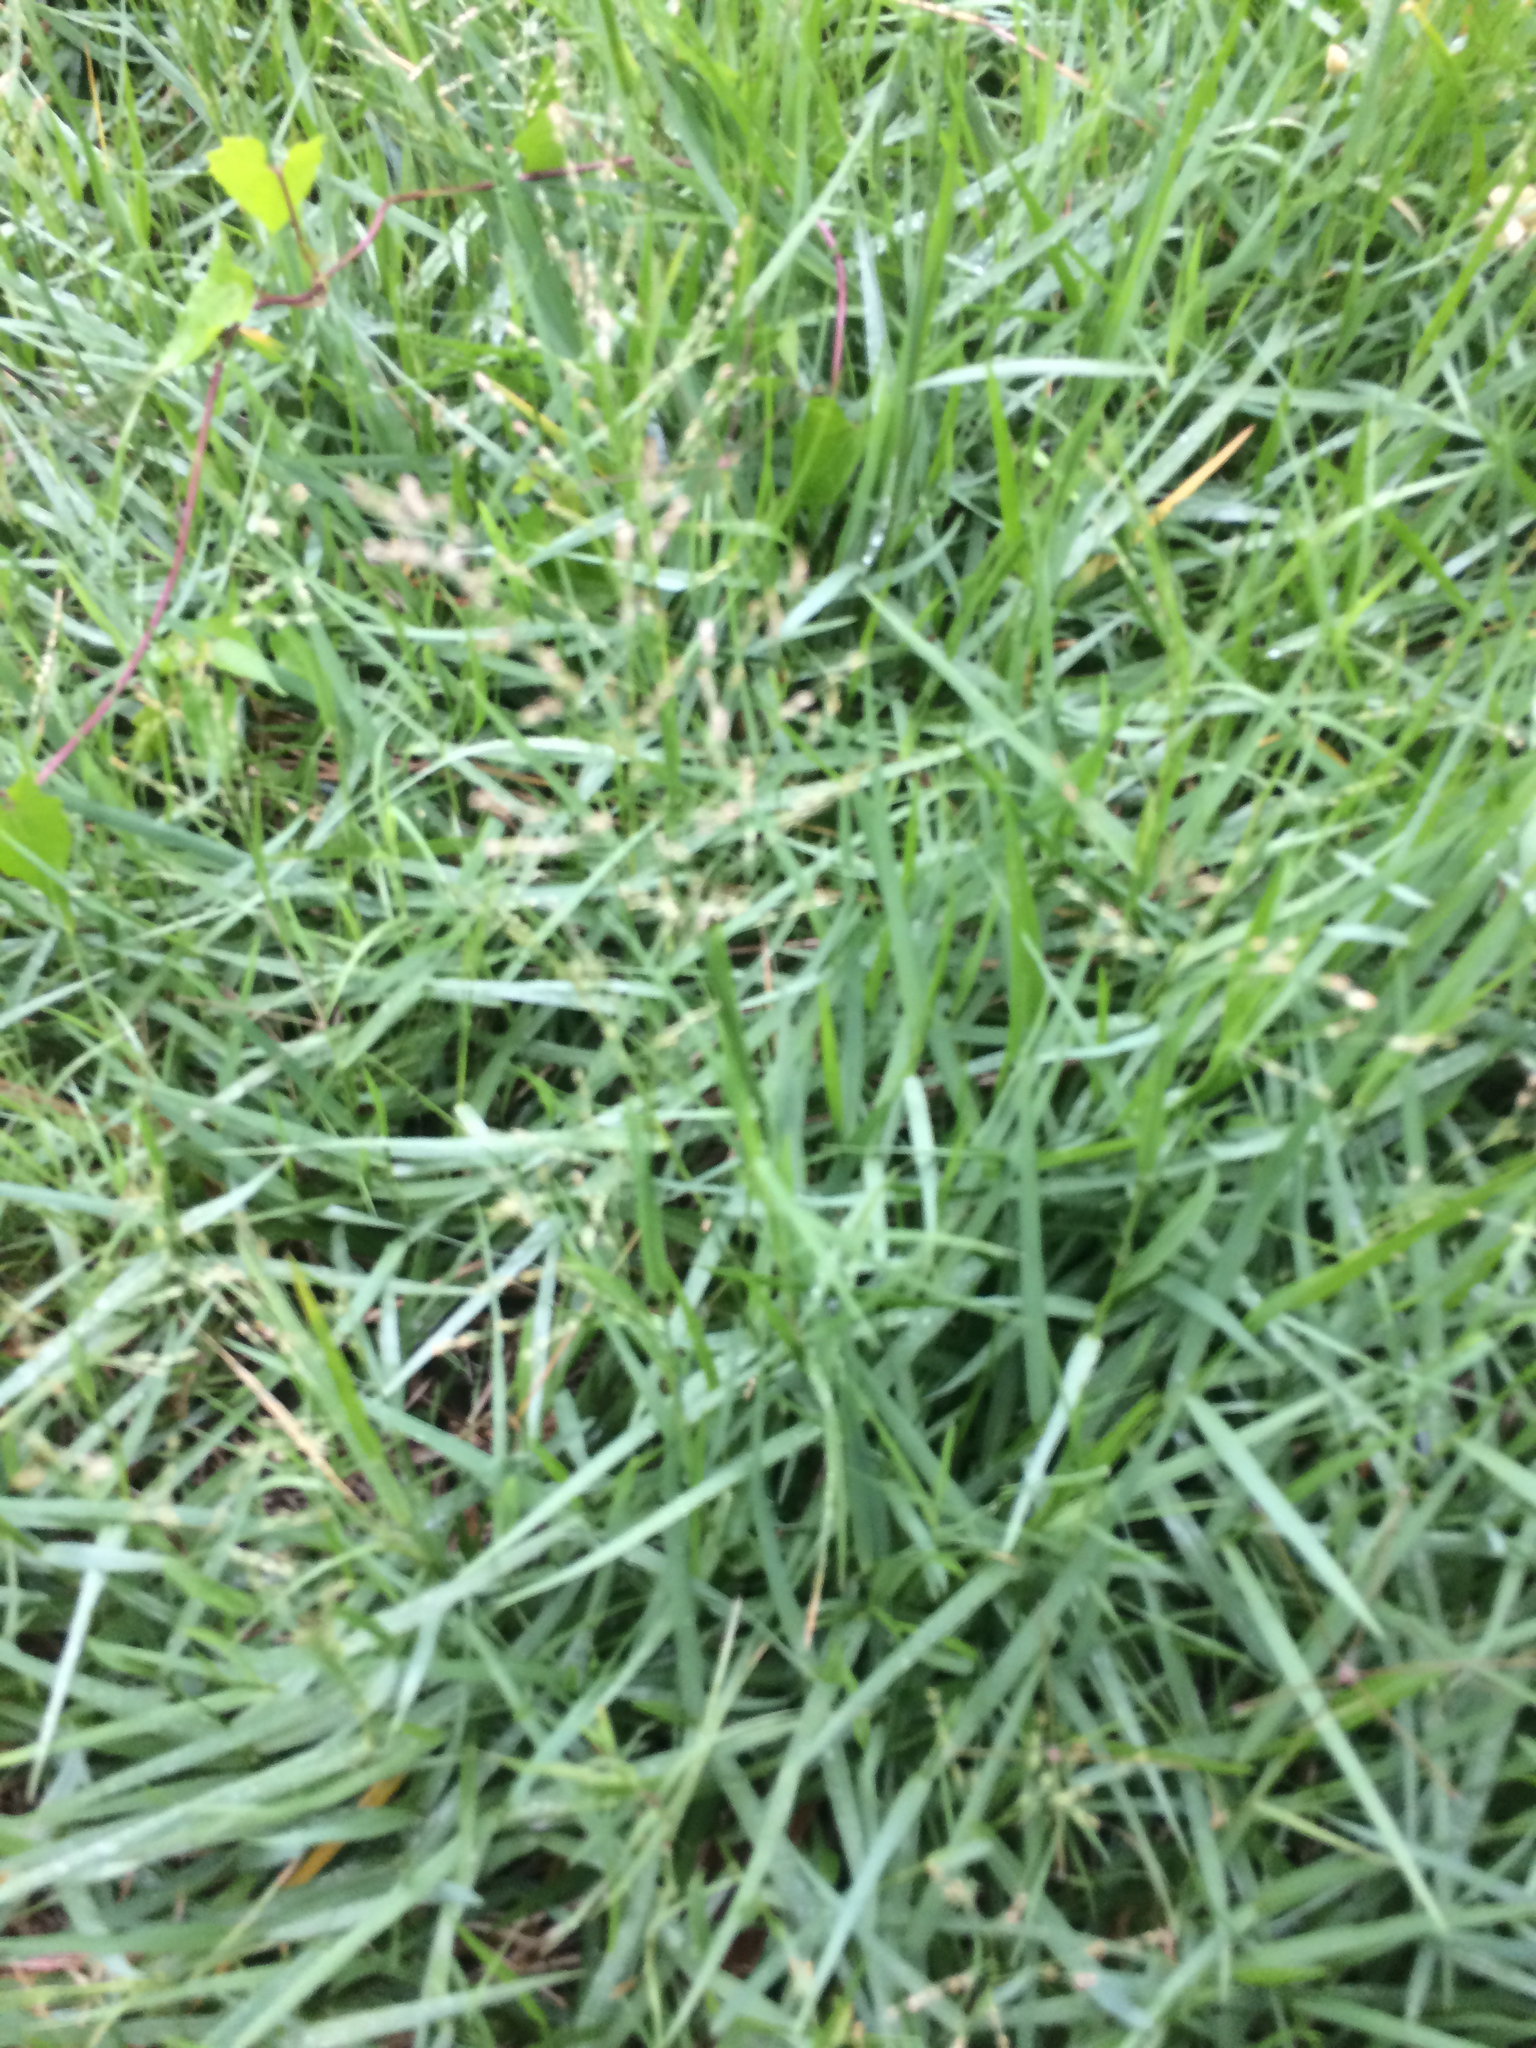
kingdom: Plantae
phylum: Tracheophyta
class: Liliopsida
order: Poales
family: Poaceae
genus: Panicum
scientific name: Panicum repens
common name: Torpedo grass
